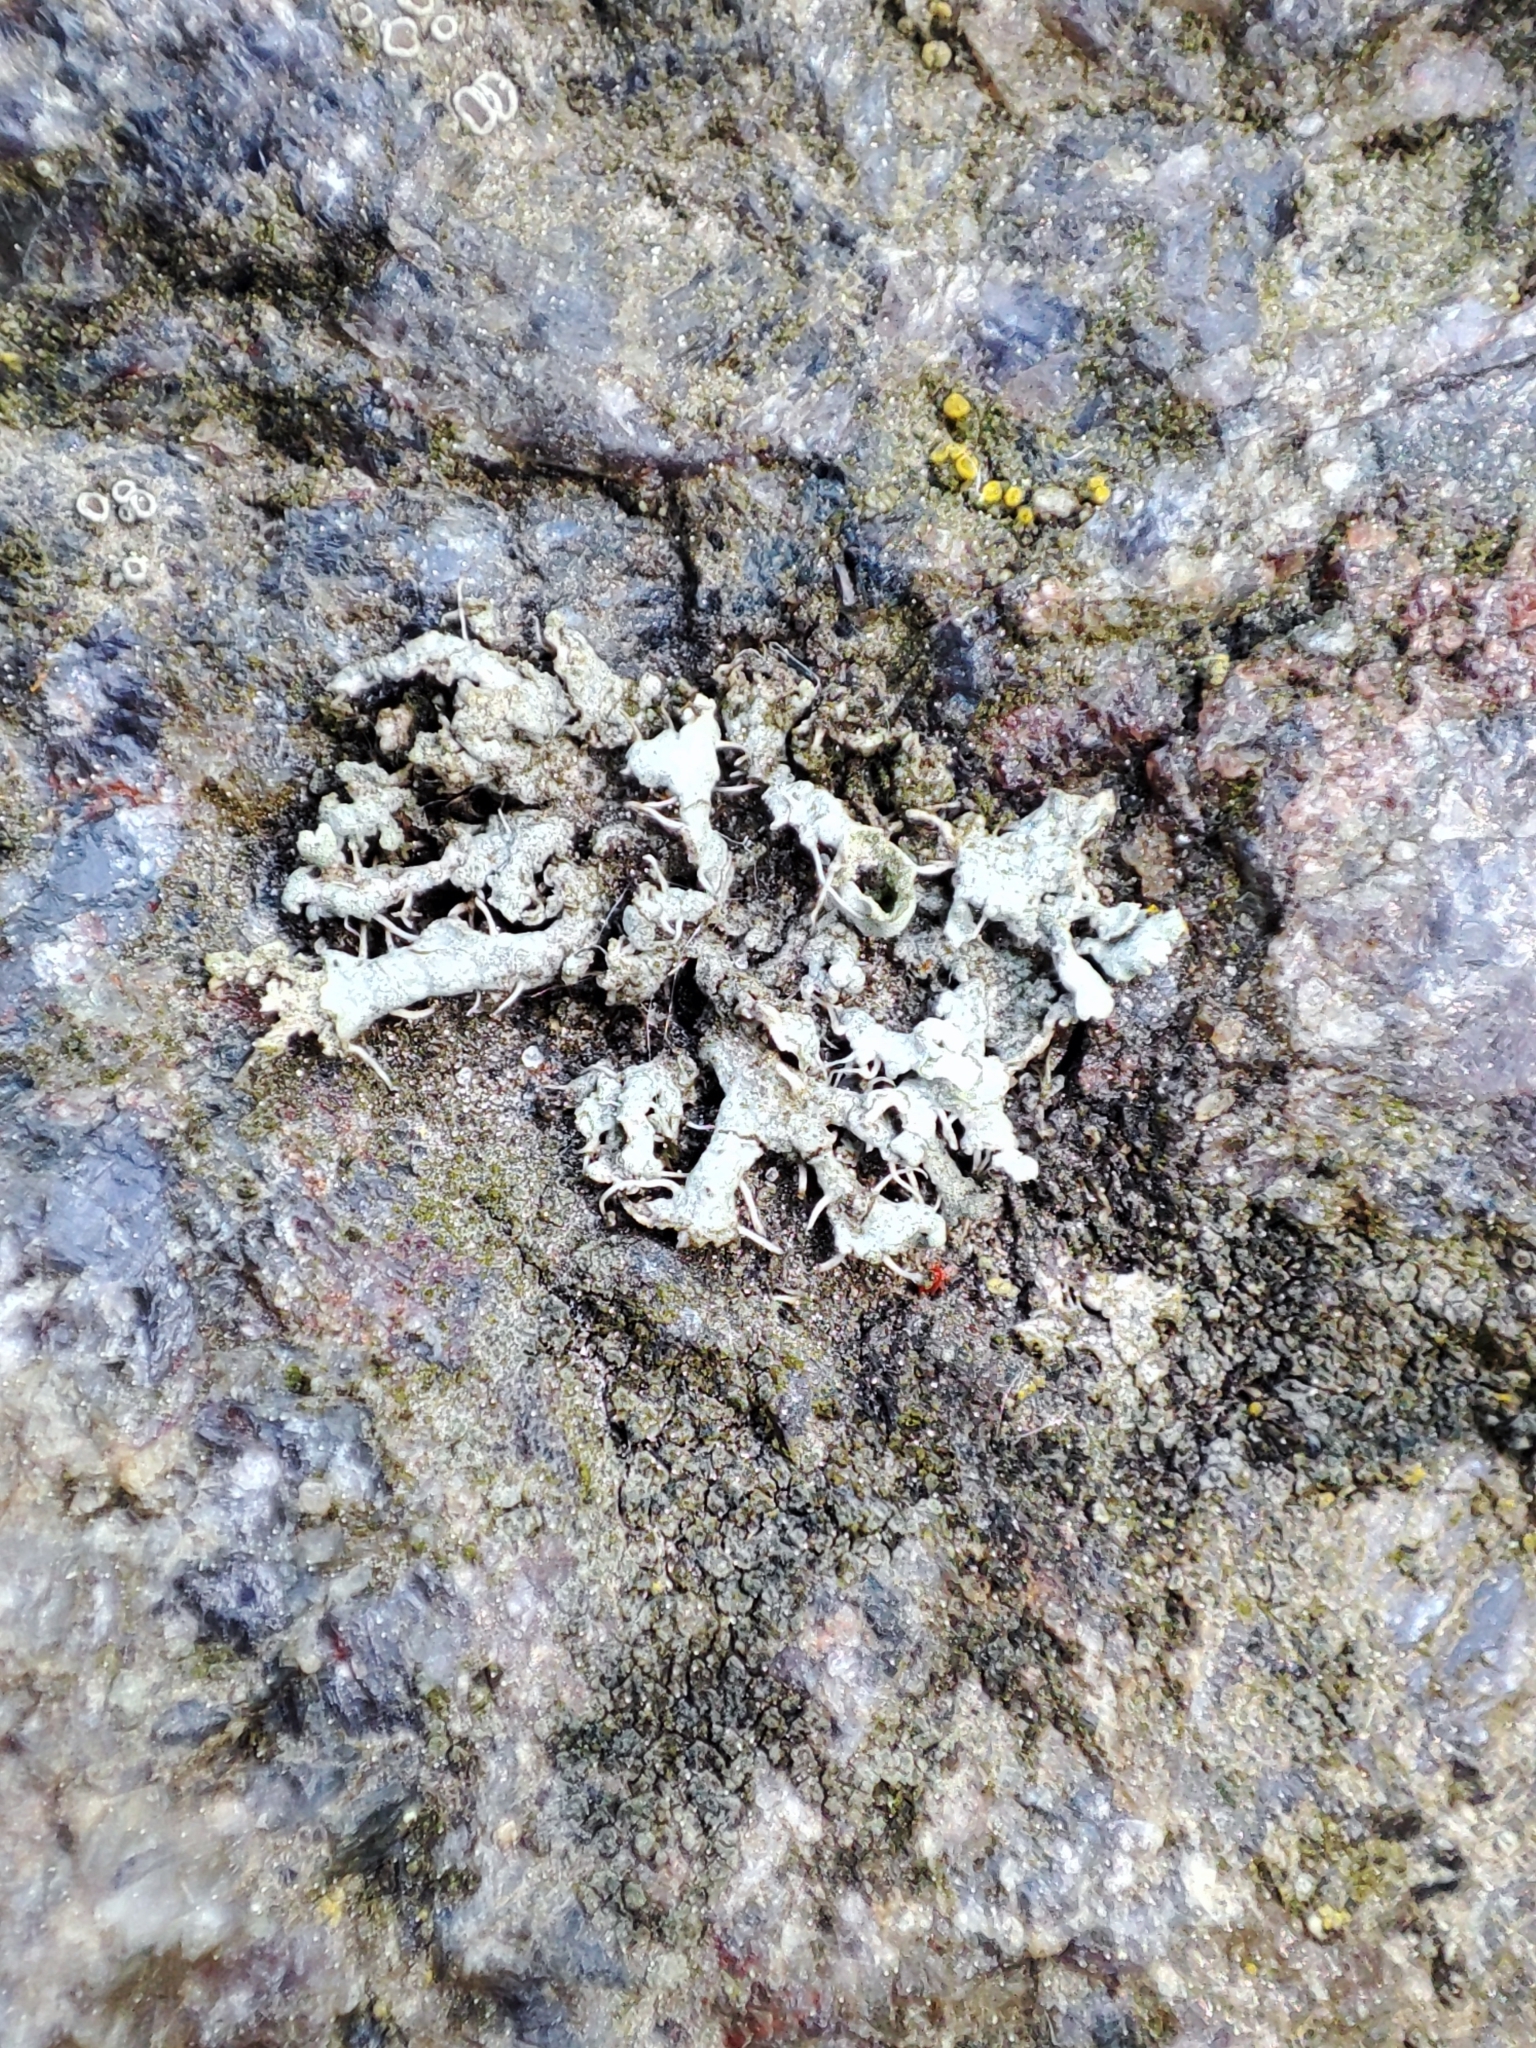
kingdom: Fungi
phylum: Ascomycota
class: Lecanoromycetes
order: Caliciales
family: Physciaceae
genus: Physcia
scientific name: Physcia adscendens
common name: Hooded rosette lichen
